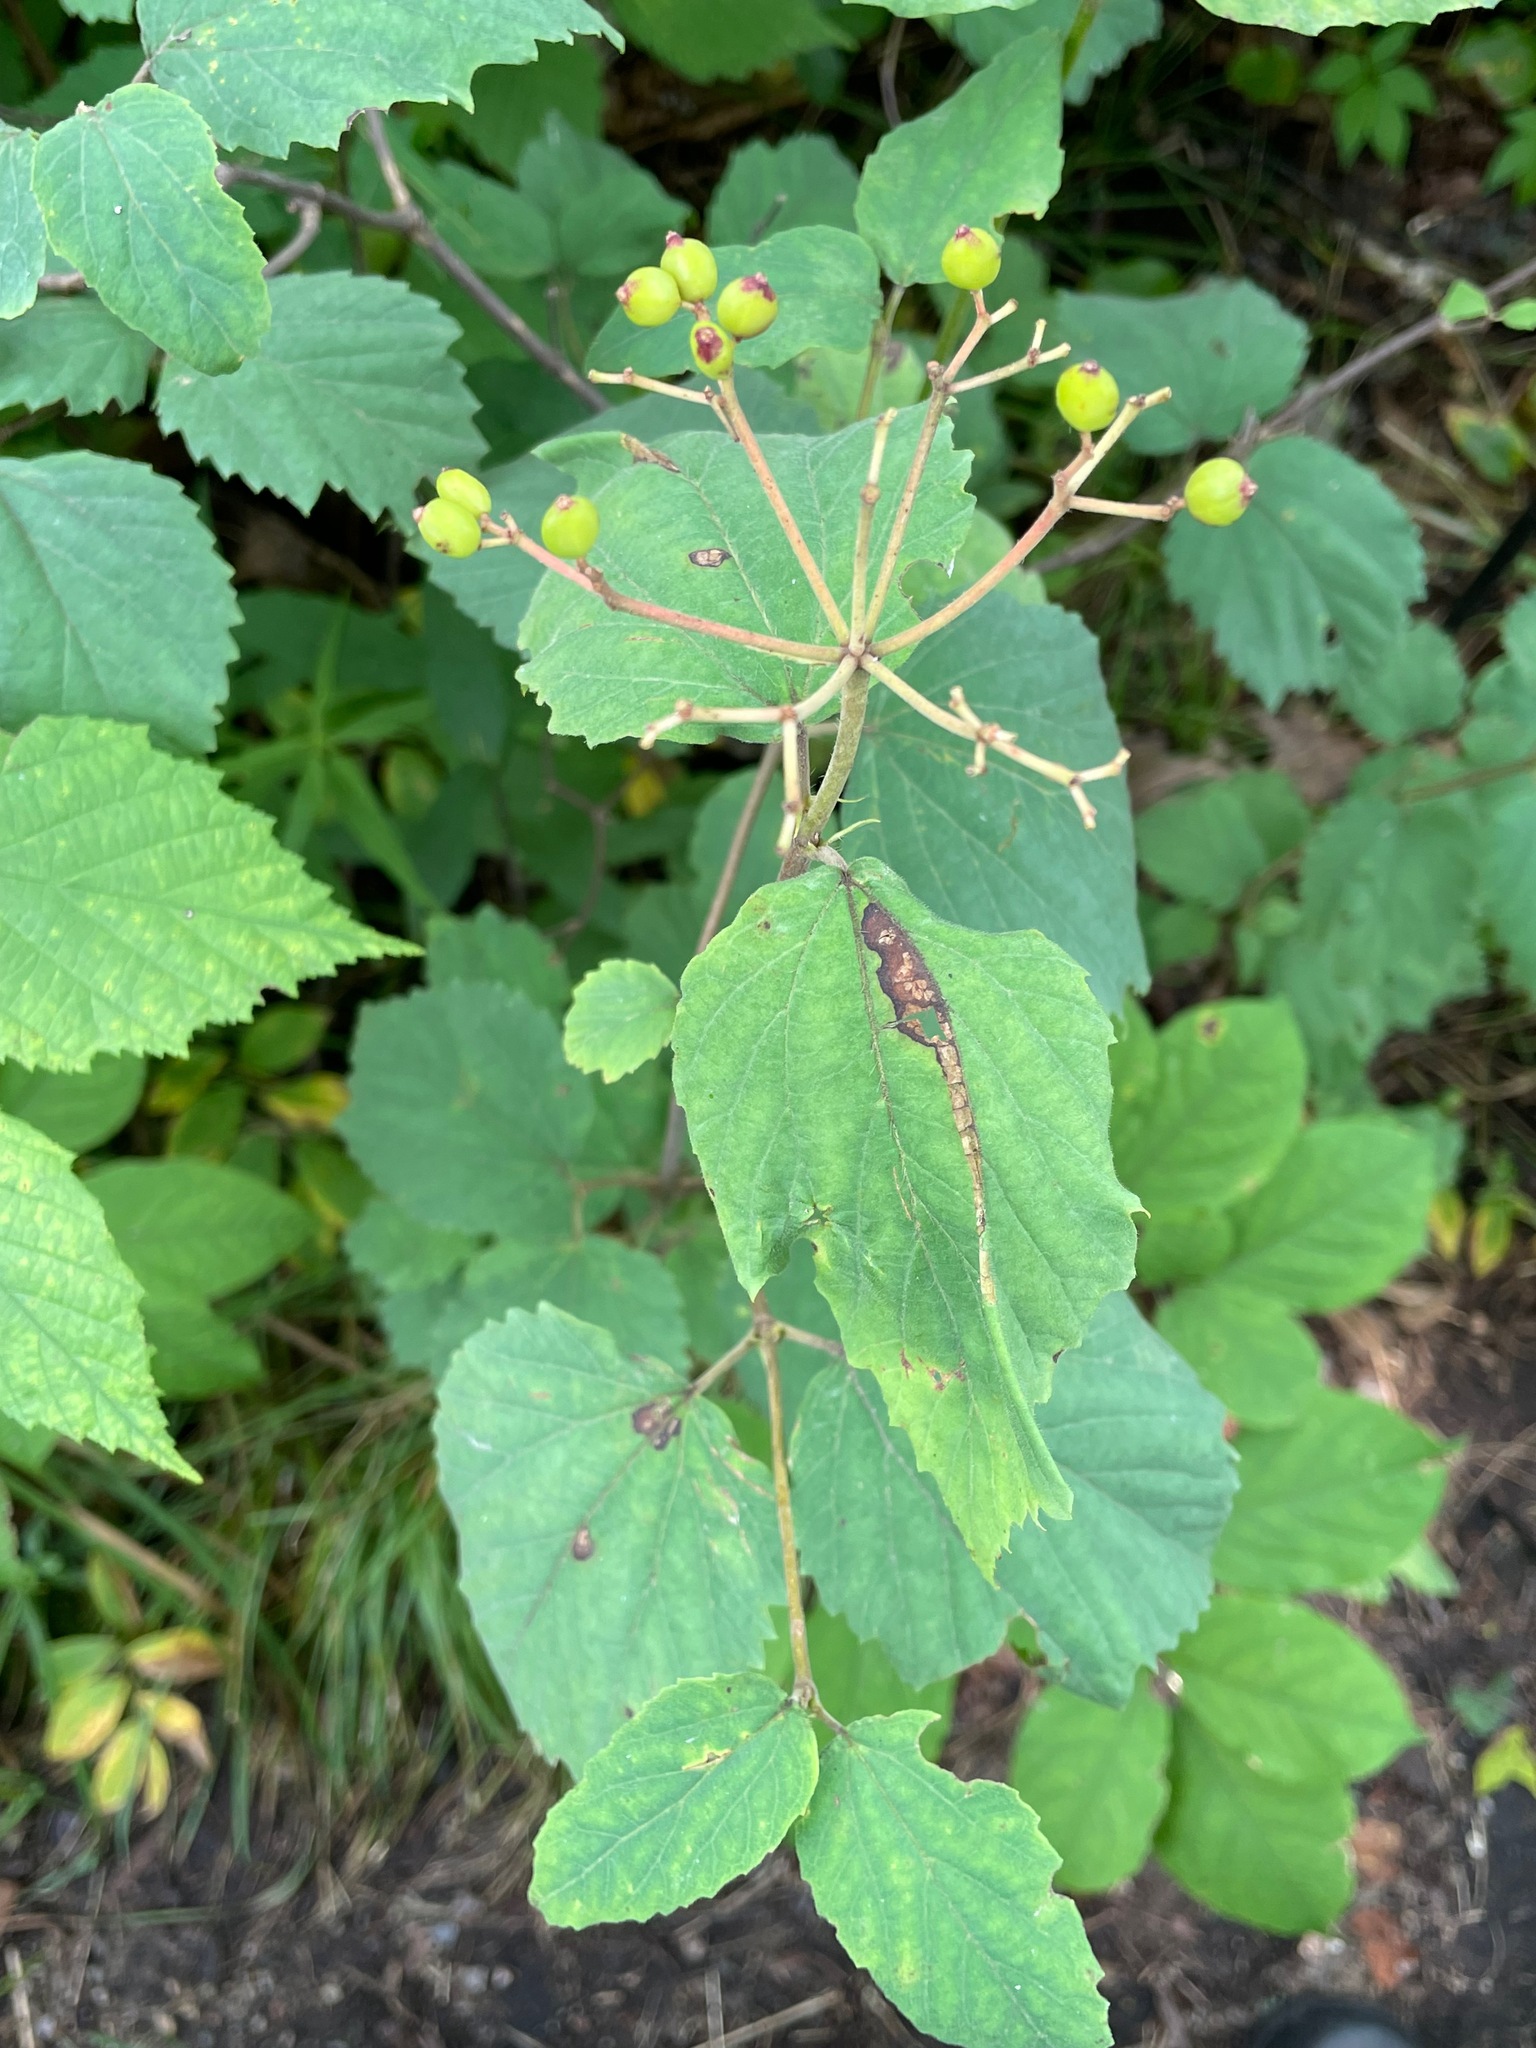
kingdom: Plantae
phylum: Tracheophyta
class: Magnoliopsida
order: Dipsacales
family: Viburnaceae
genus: Viburnum
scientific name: Viburnum acerifolium
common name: Dockmackie
